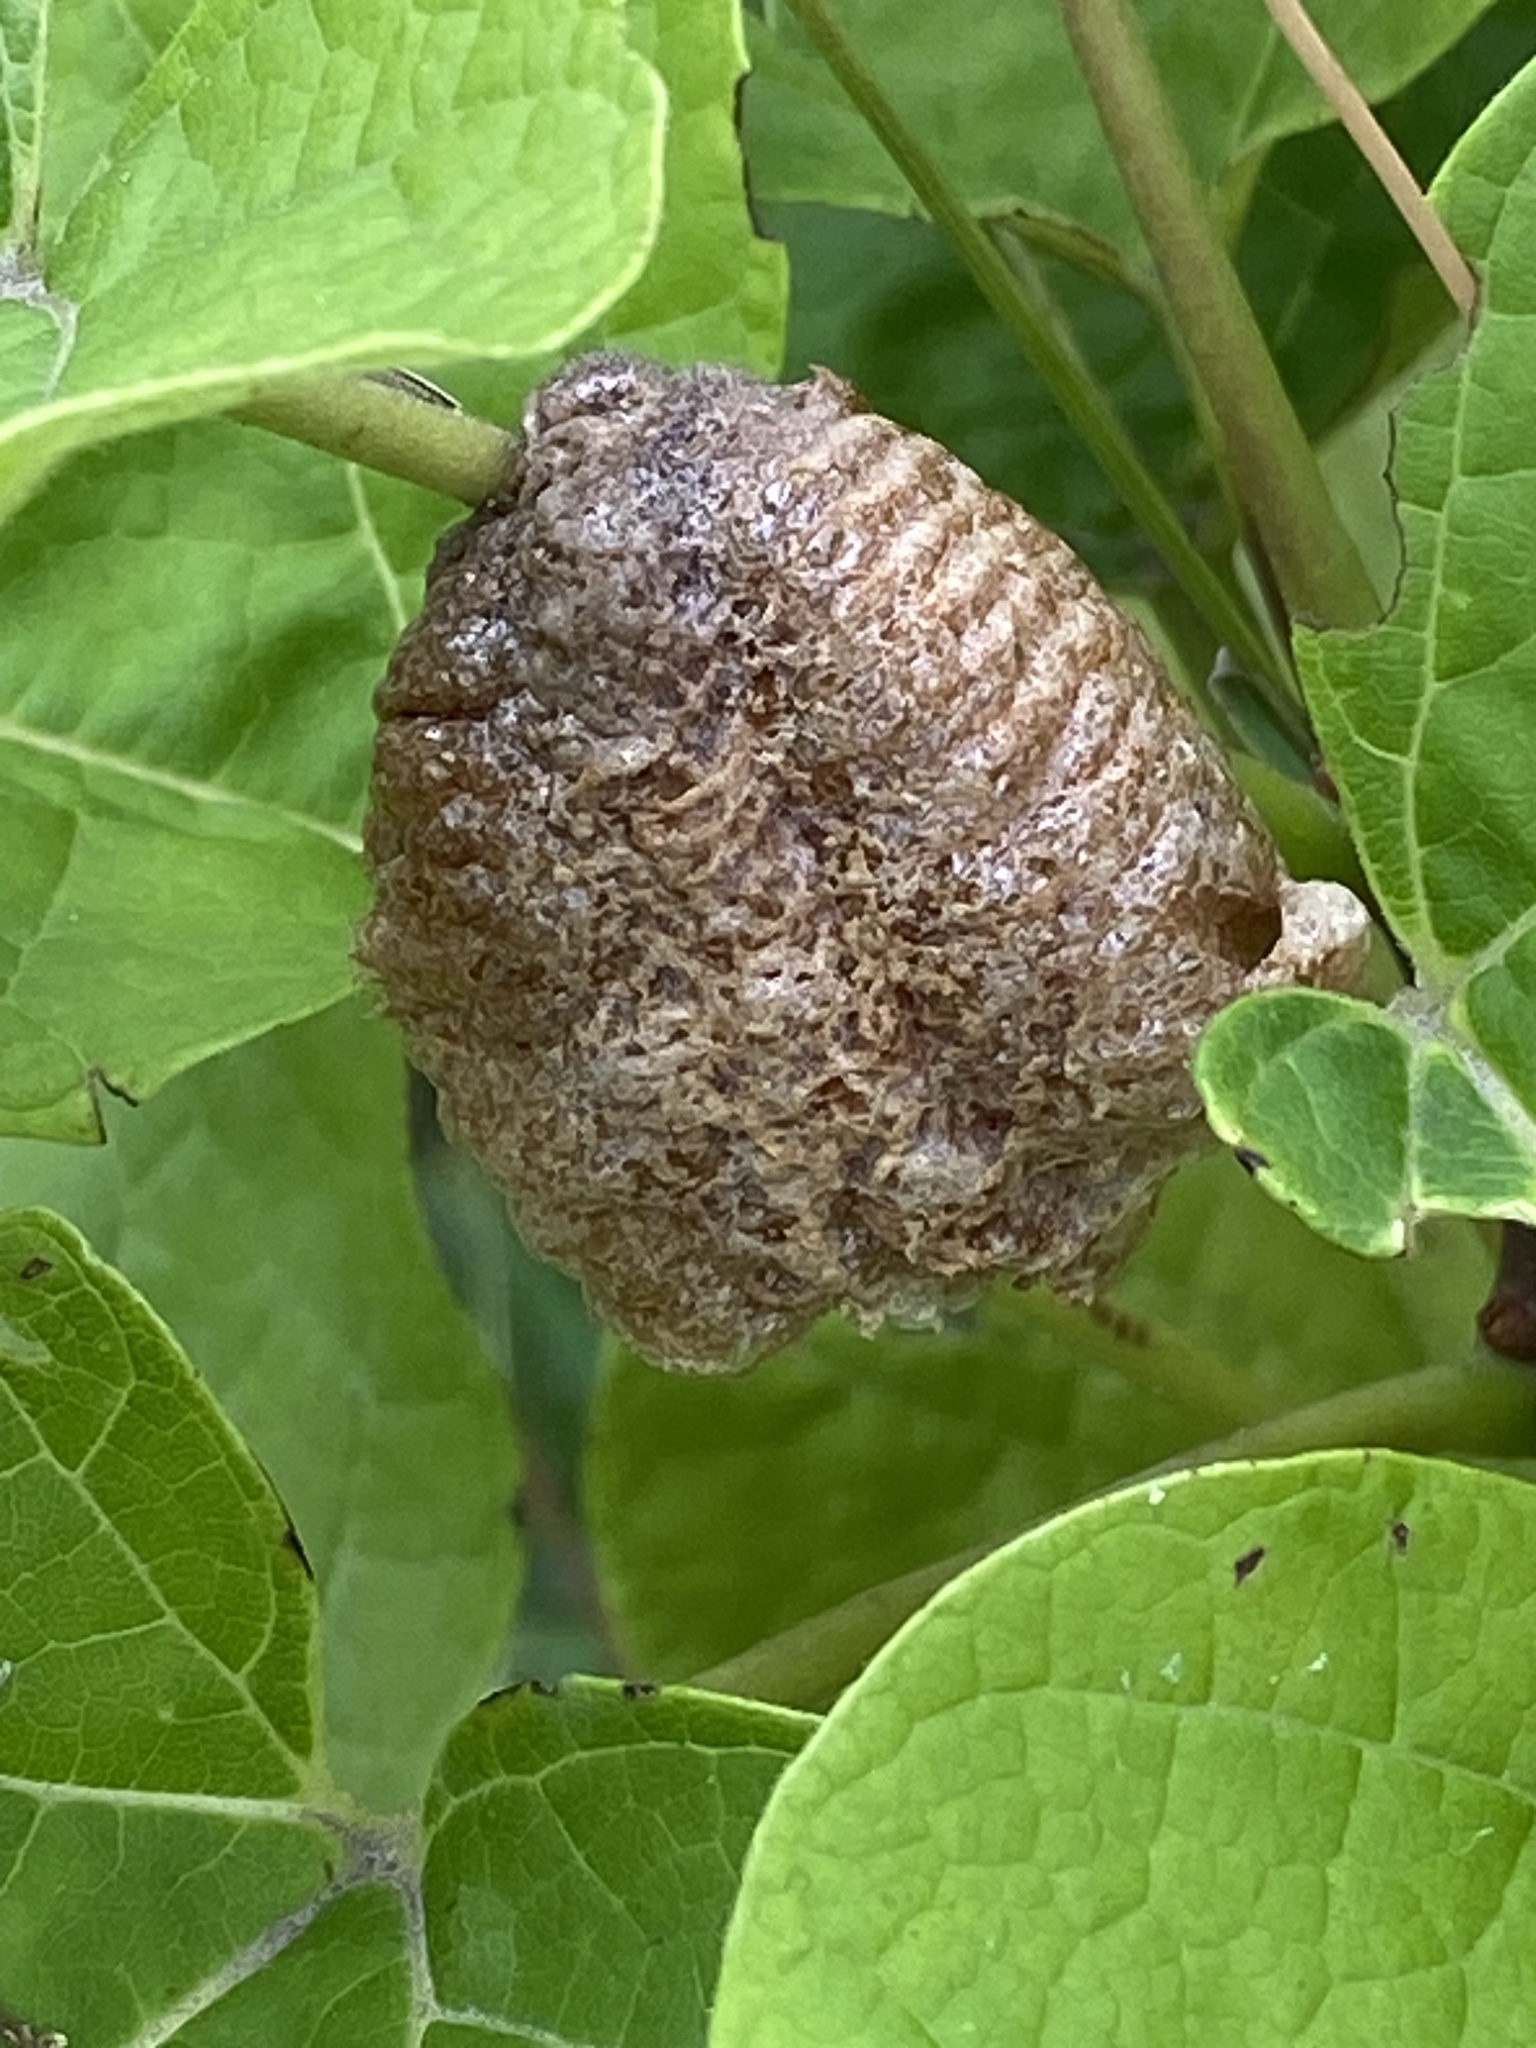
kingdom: Animalia
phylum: Arthropoda
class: Insecta
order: Mantodea
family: Mantidae
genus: Tenodera
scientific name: Tenodera sinensis
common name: Chinese mantis
